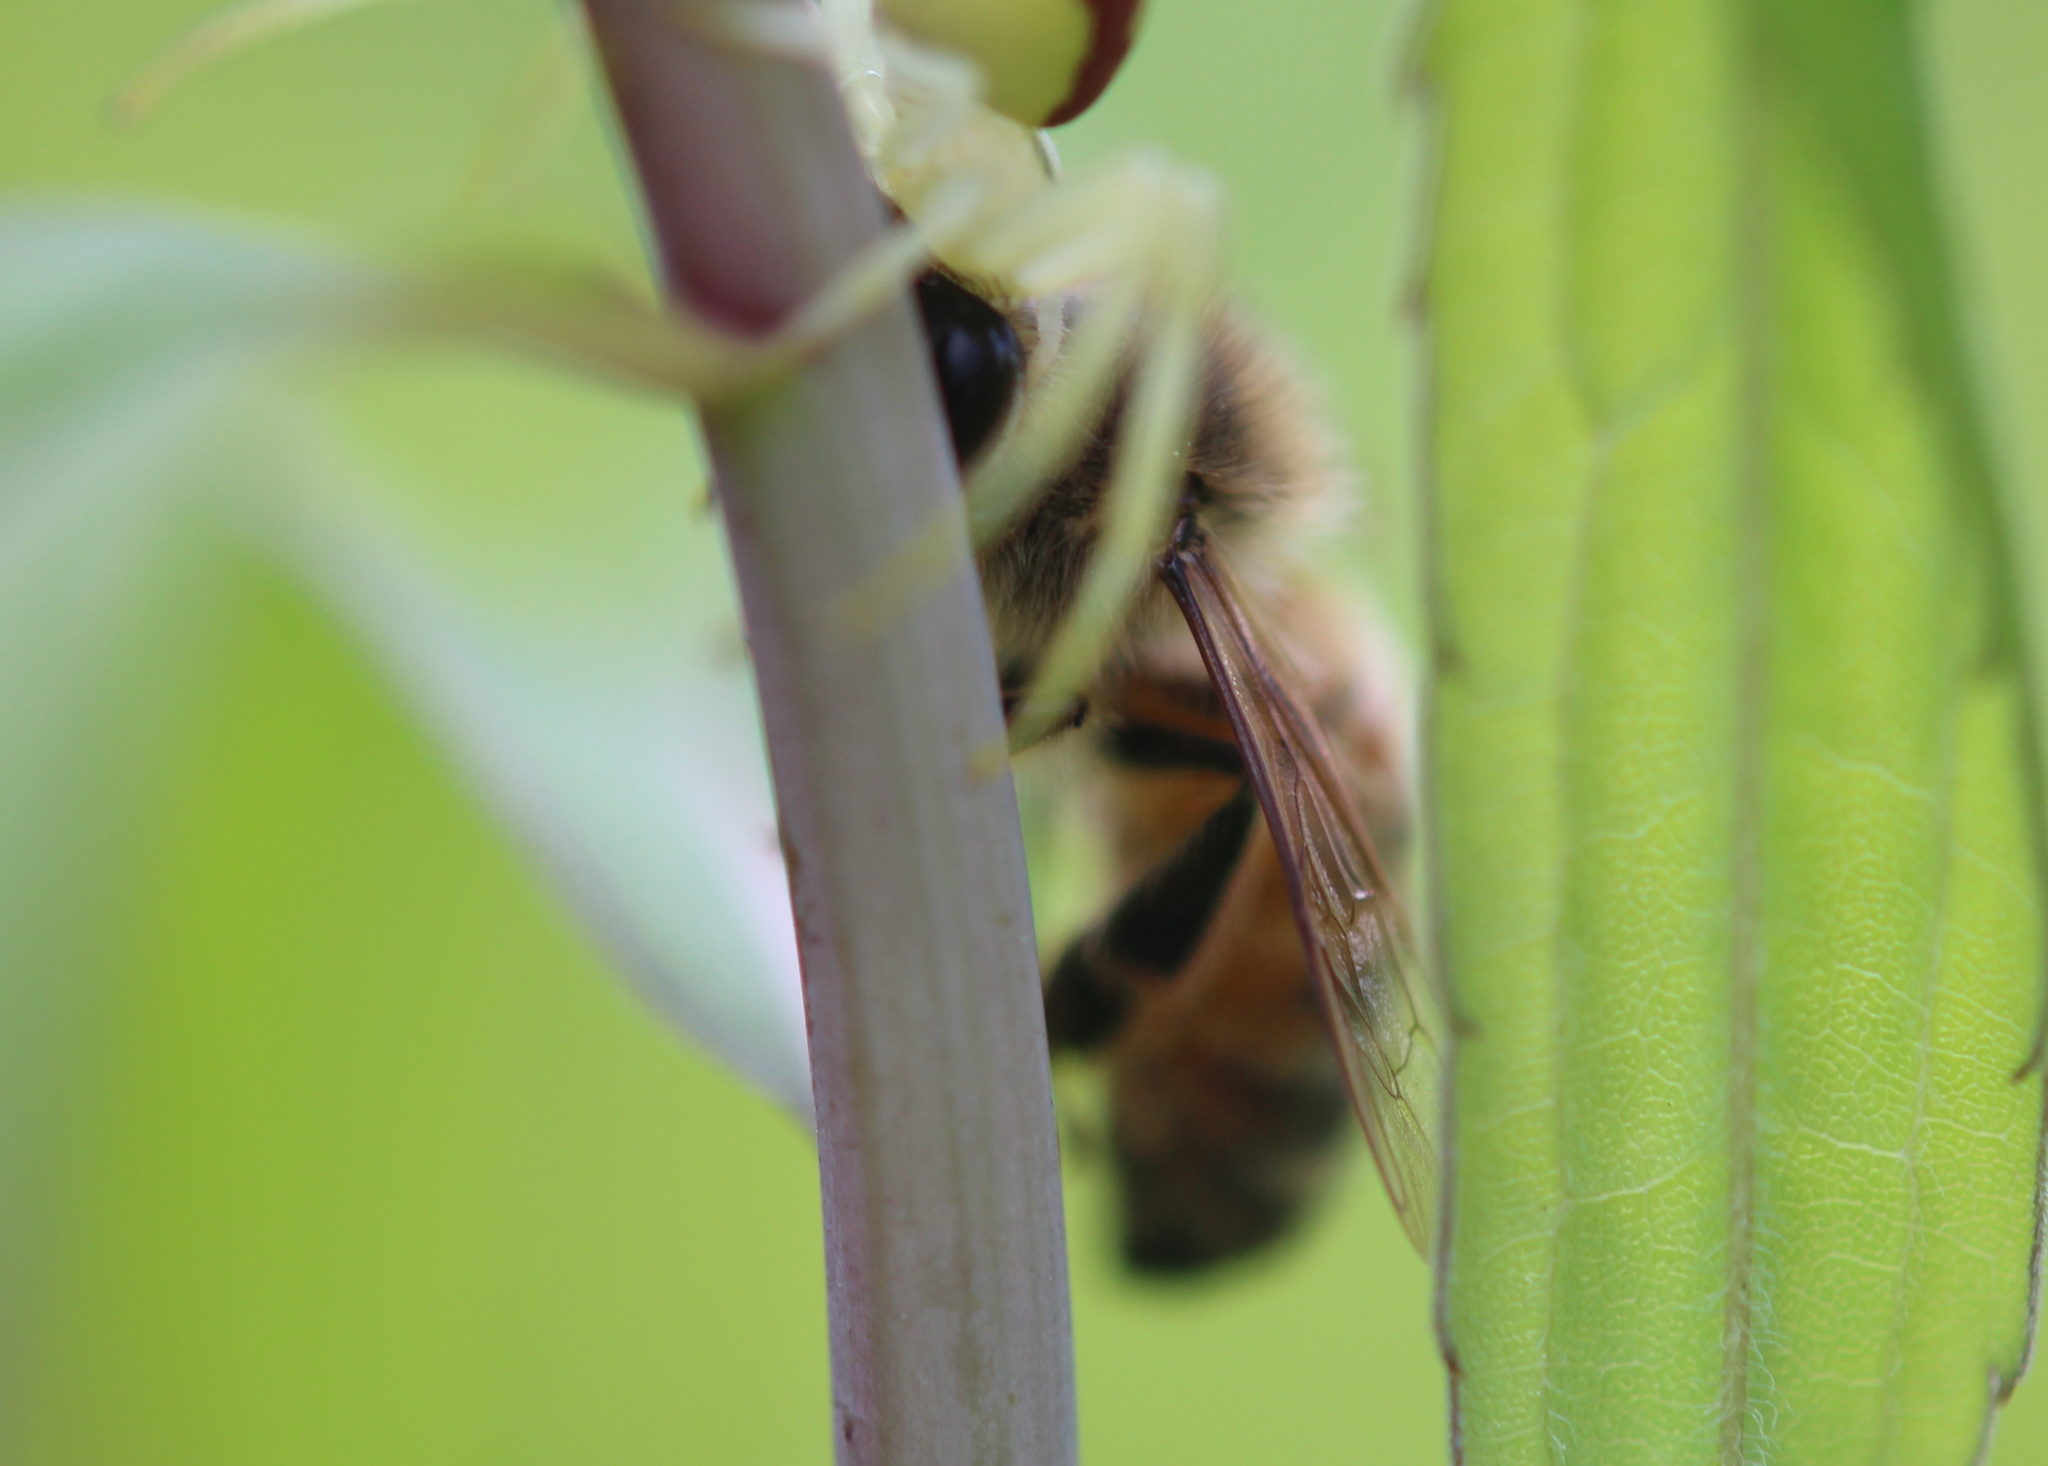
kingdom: Animalia
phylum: Arthropoda
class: Insecta
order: Hymenoptera
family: Apidae
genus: Apis
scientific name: Apis mellifera
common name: Honey bee
